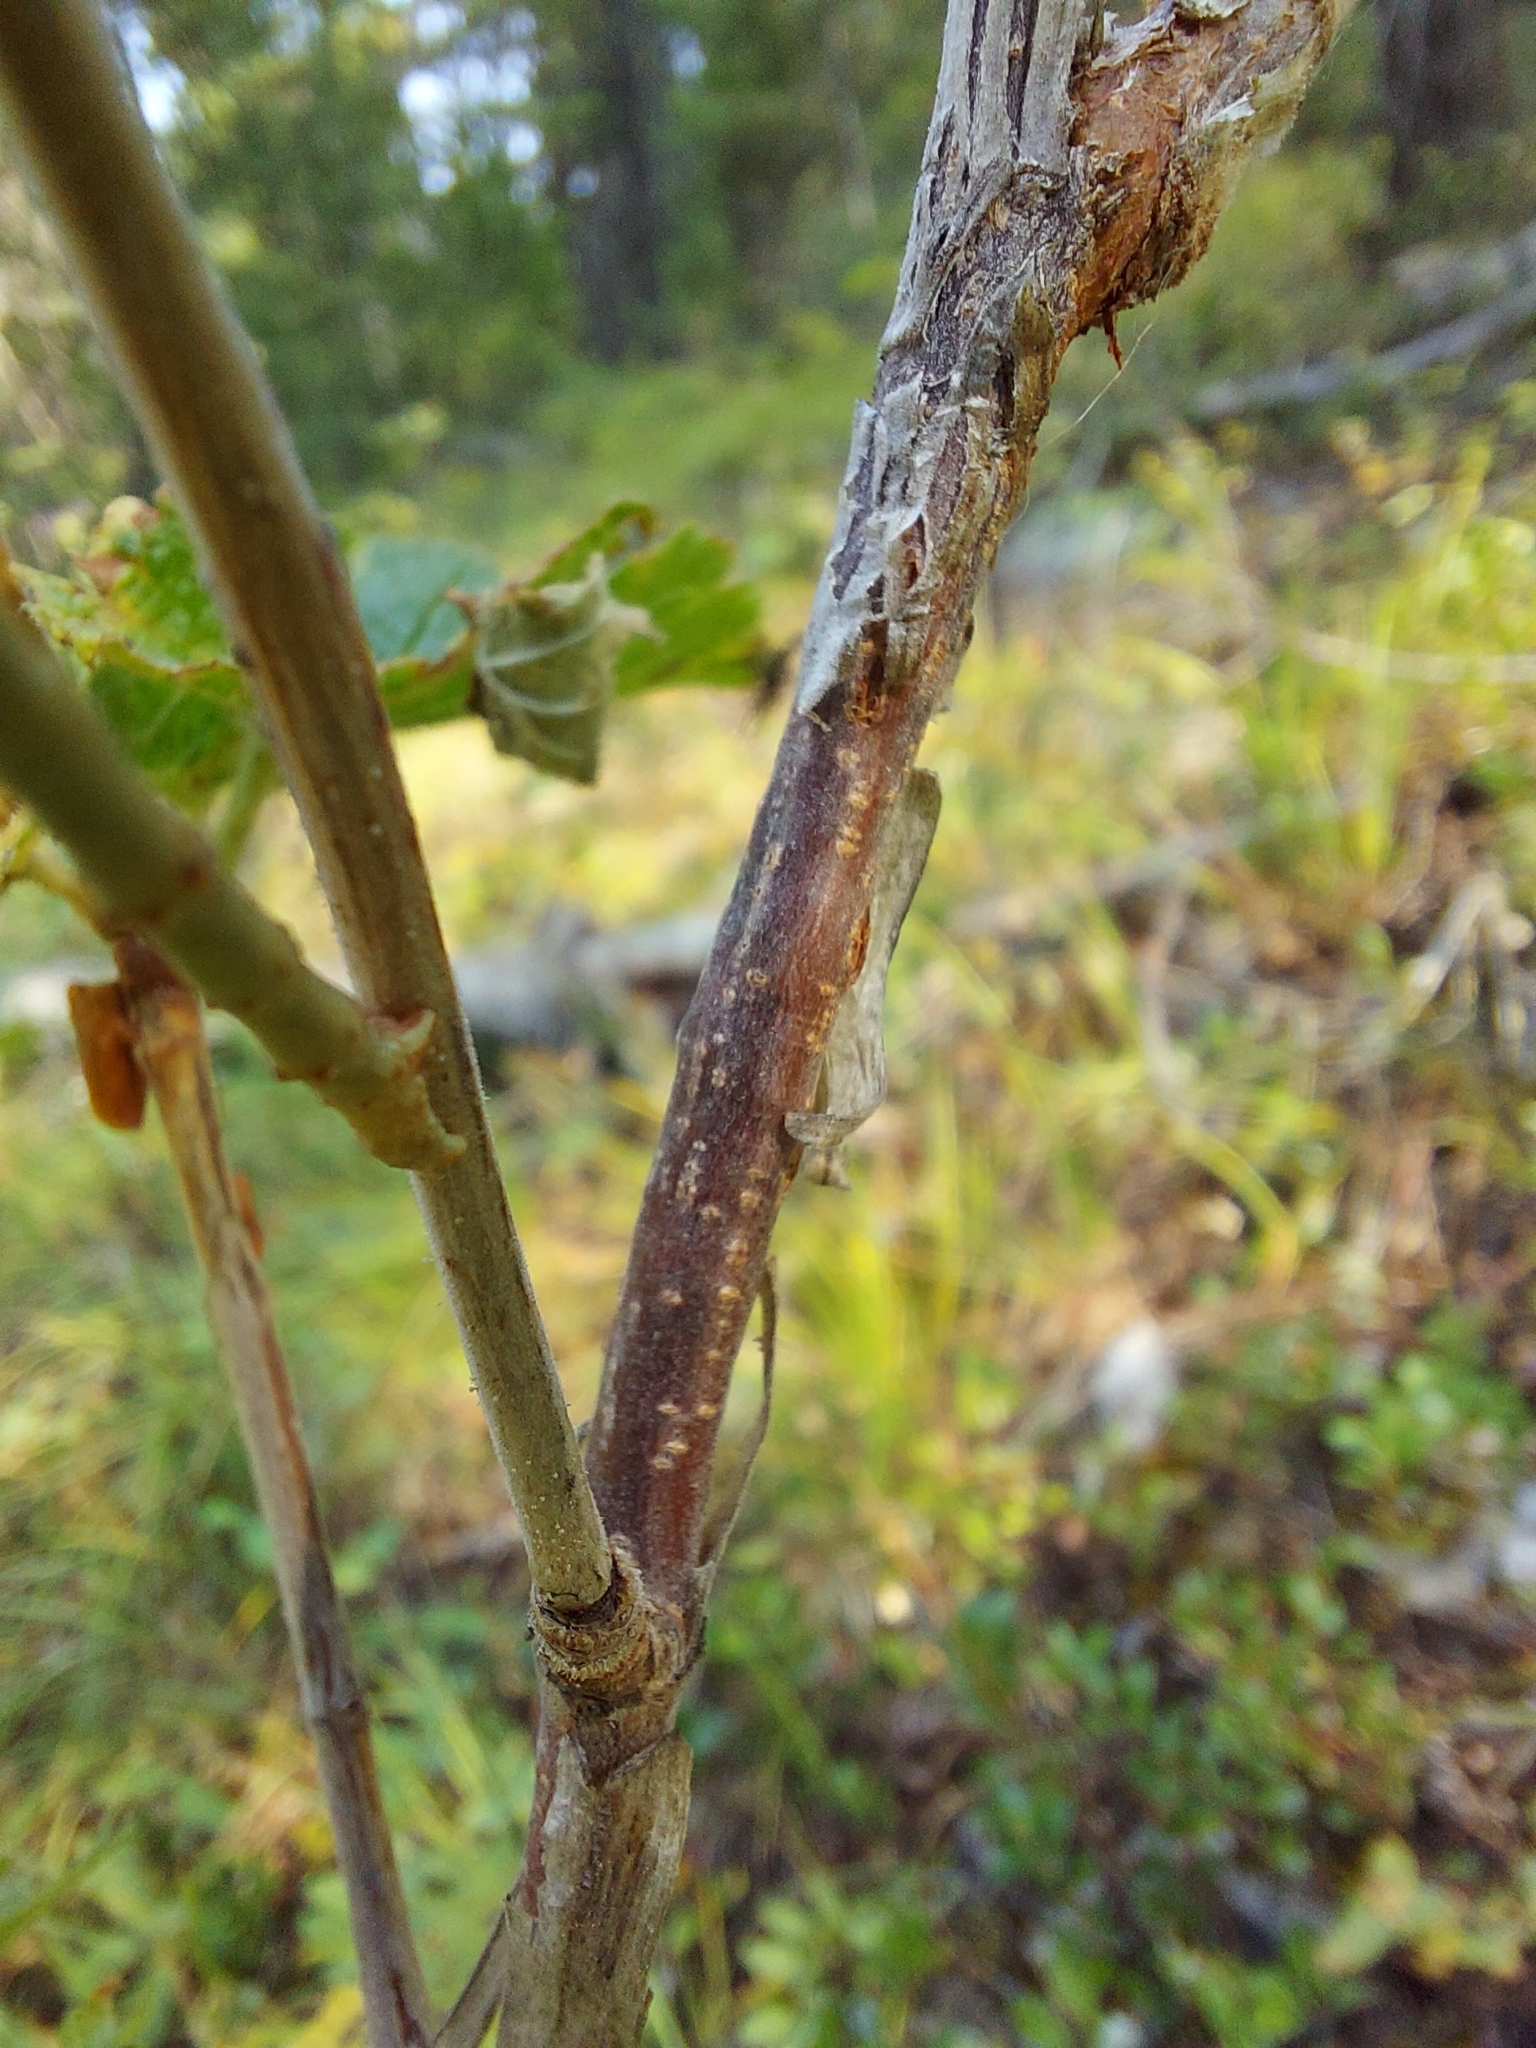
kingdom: Plantae
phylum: Tracheophyta
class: Magnoliopsida
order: Saxifragales
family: Grossulariaceae
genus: Ribes
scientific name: Ribes viscosissimum
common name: Sticky currant
